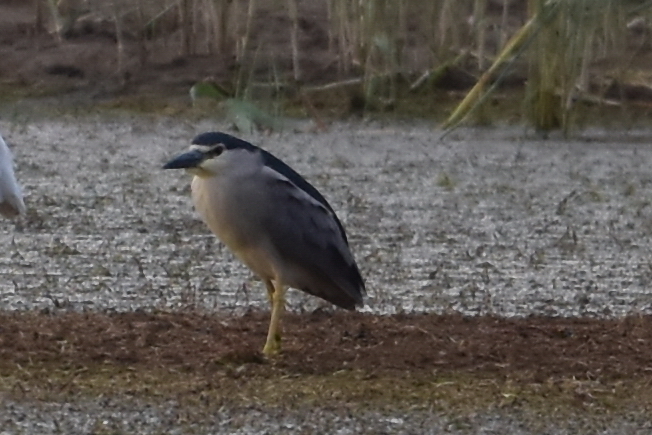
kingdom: Animalia
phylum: Chordata
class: Aves
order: Pelecaniformes
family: Ardeidae
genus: Nycticorax
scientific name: Nycticorax nycticorax
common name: Black-crowned night heron
